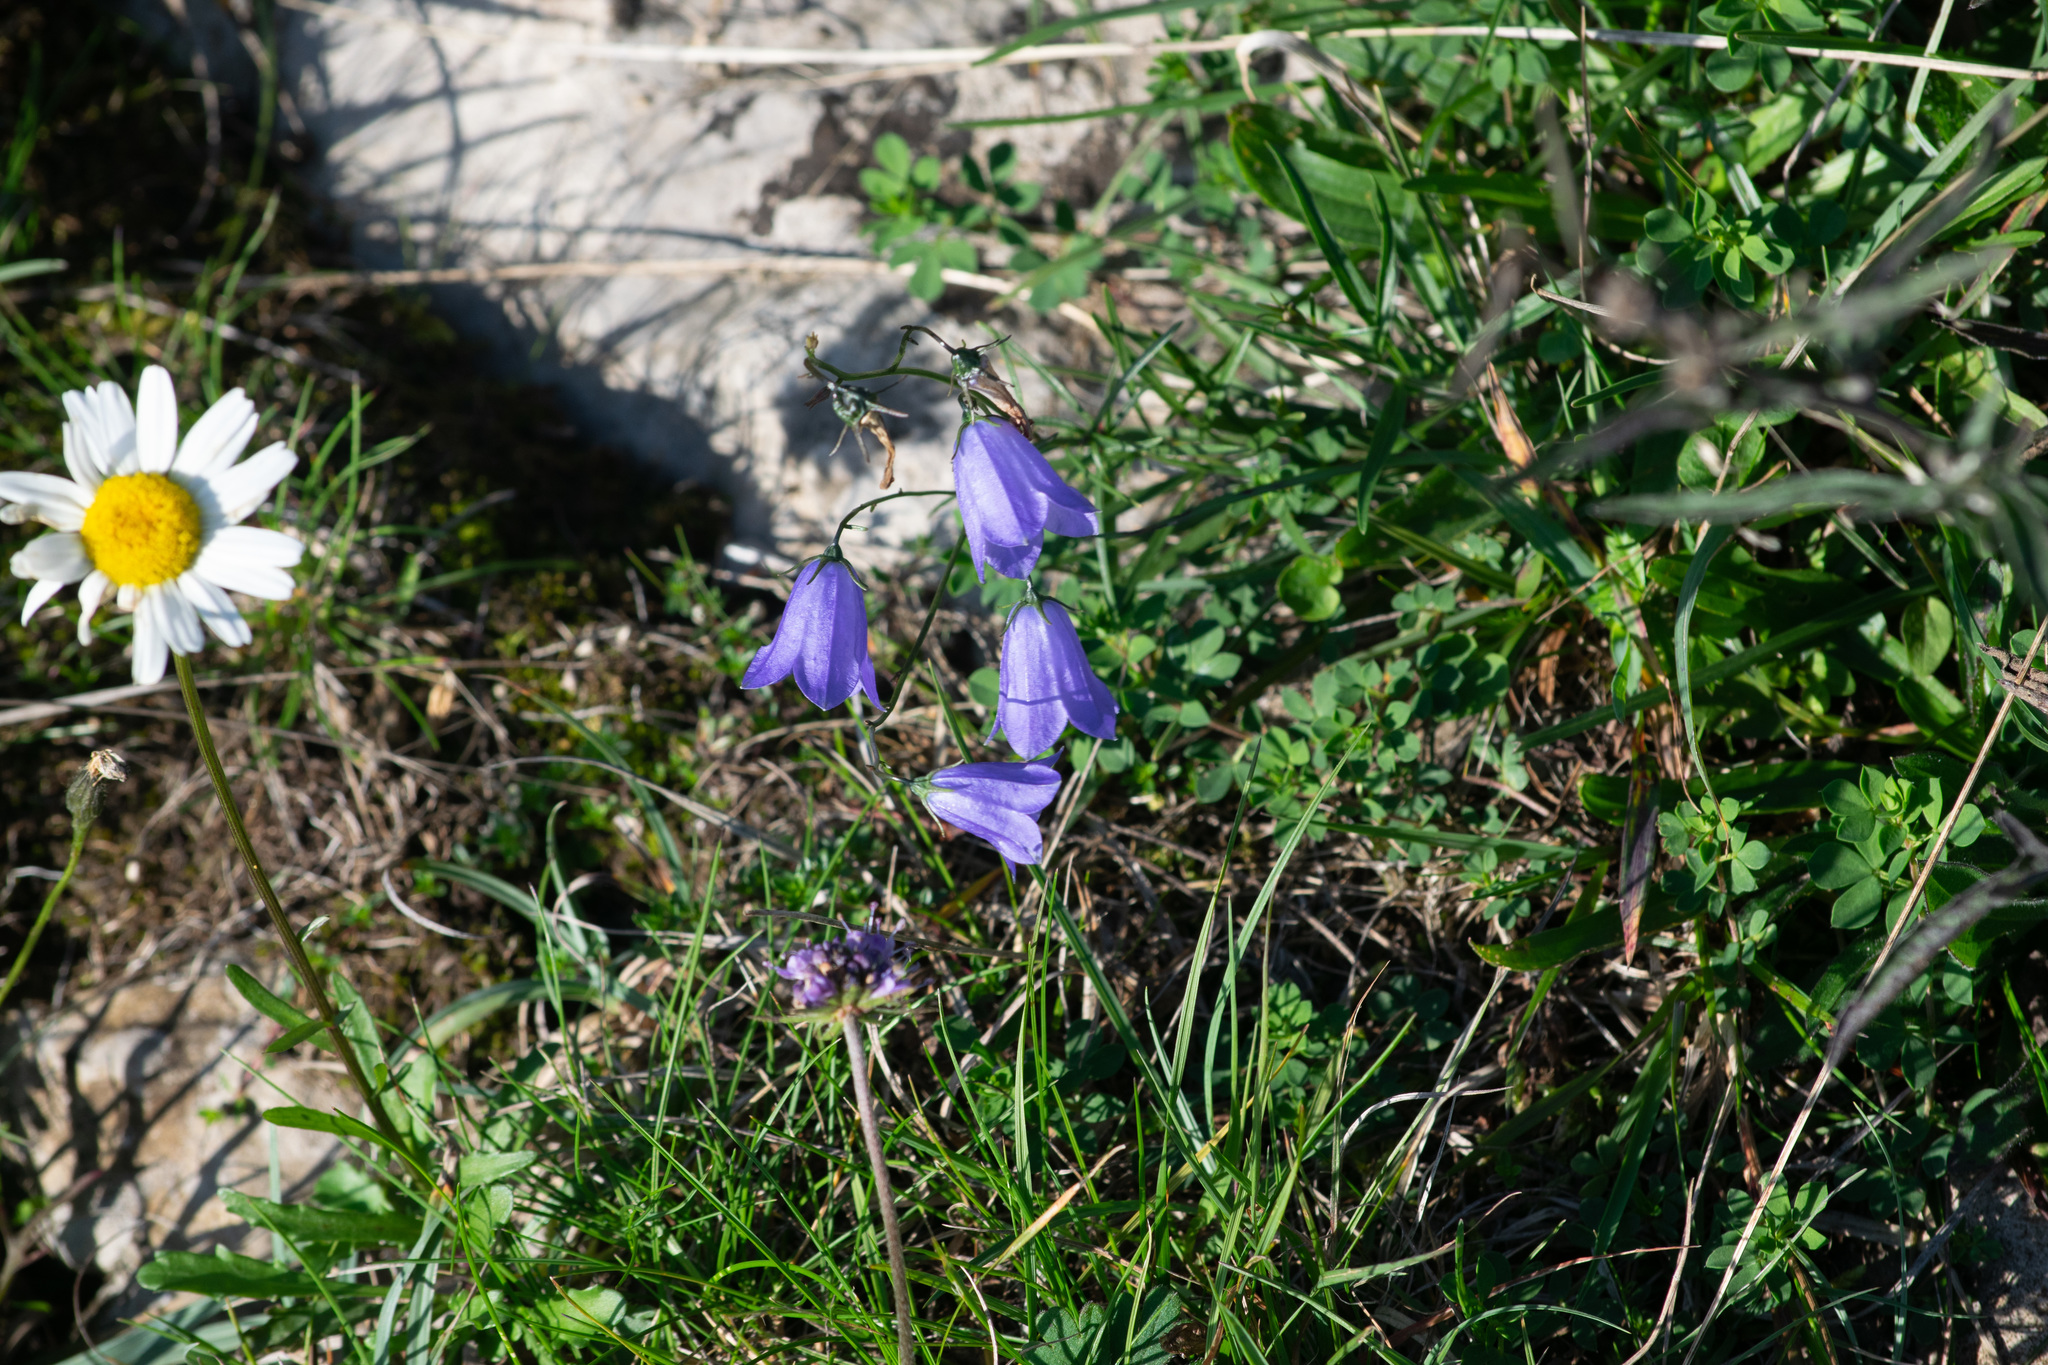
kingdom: Plantae
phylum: Tracheophyta
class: Magnoliopsida
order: Asterales
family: Asteraceae
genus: Leucanthemum
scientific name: Leucanthemum vulgare
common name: Oxeye daisy
